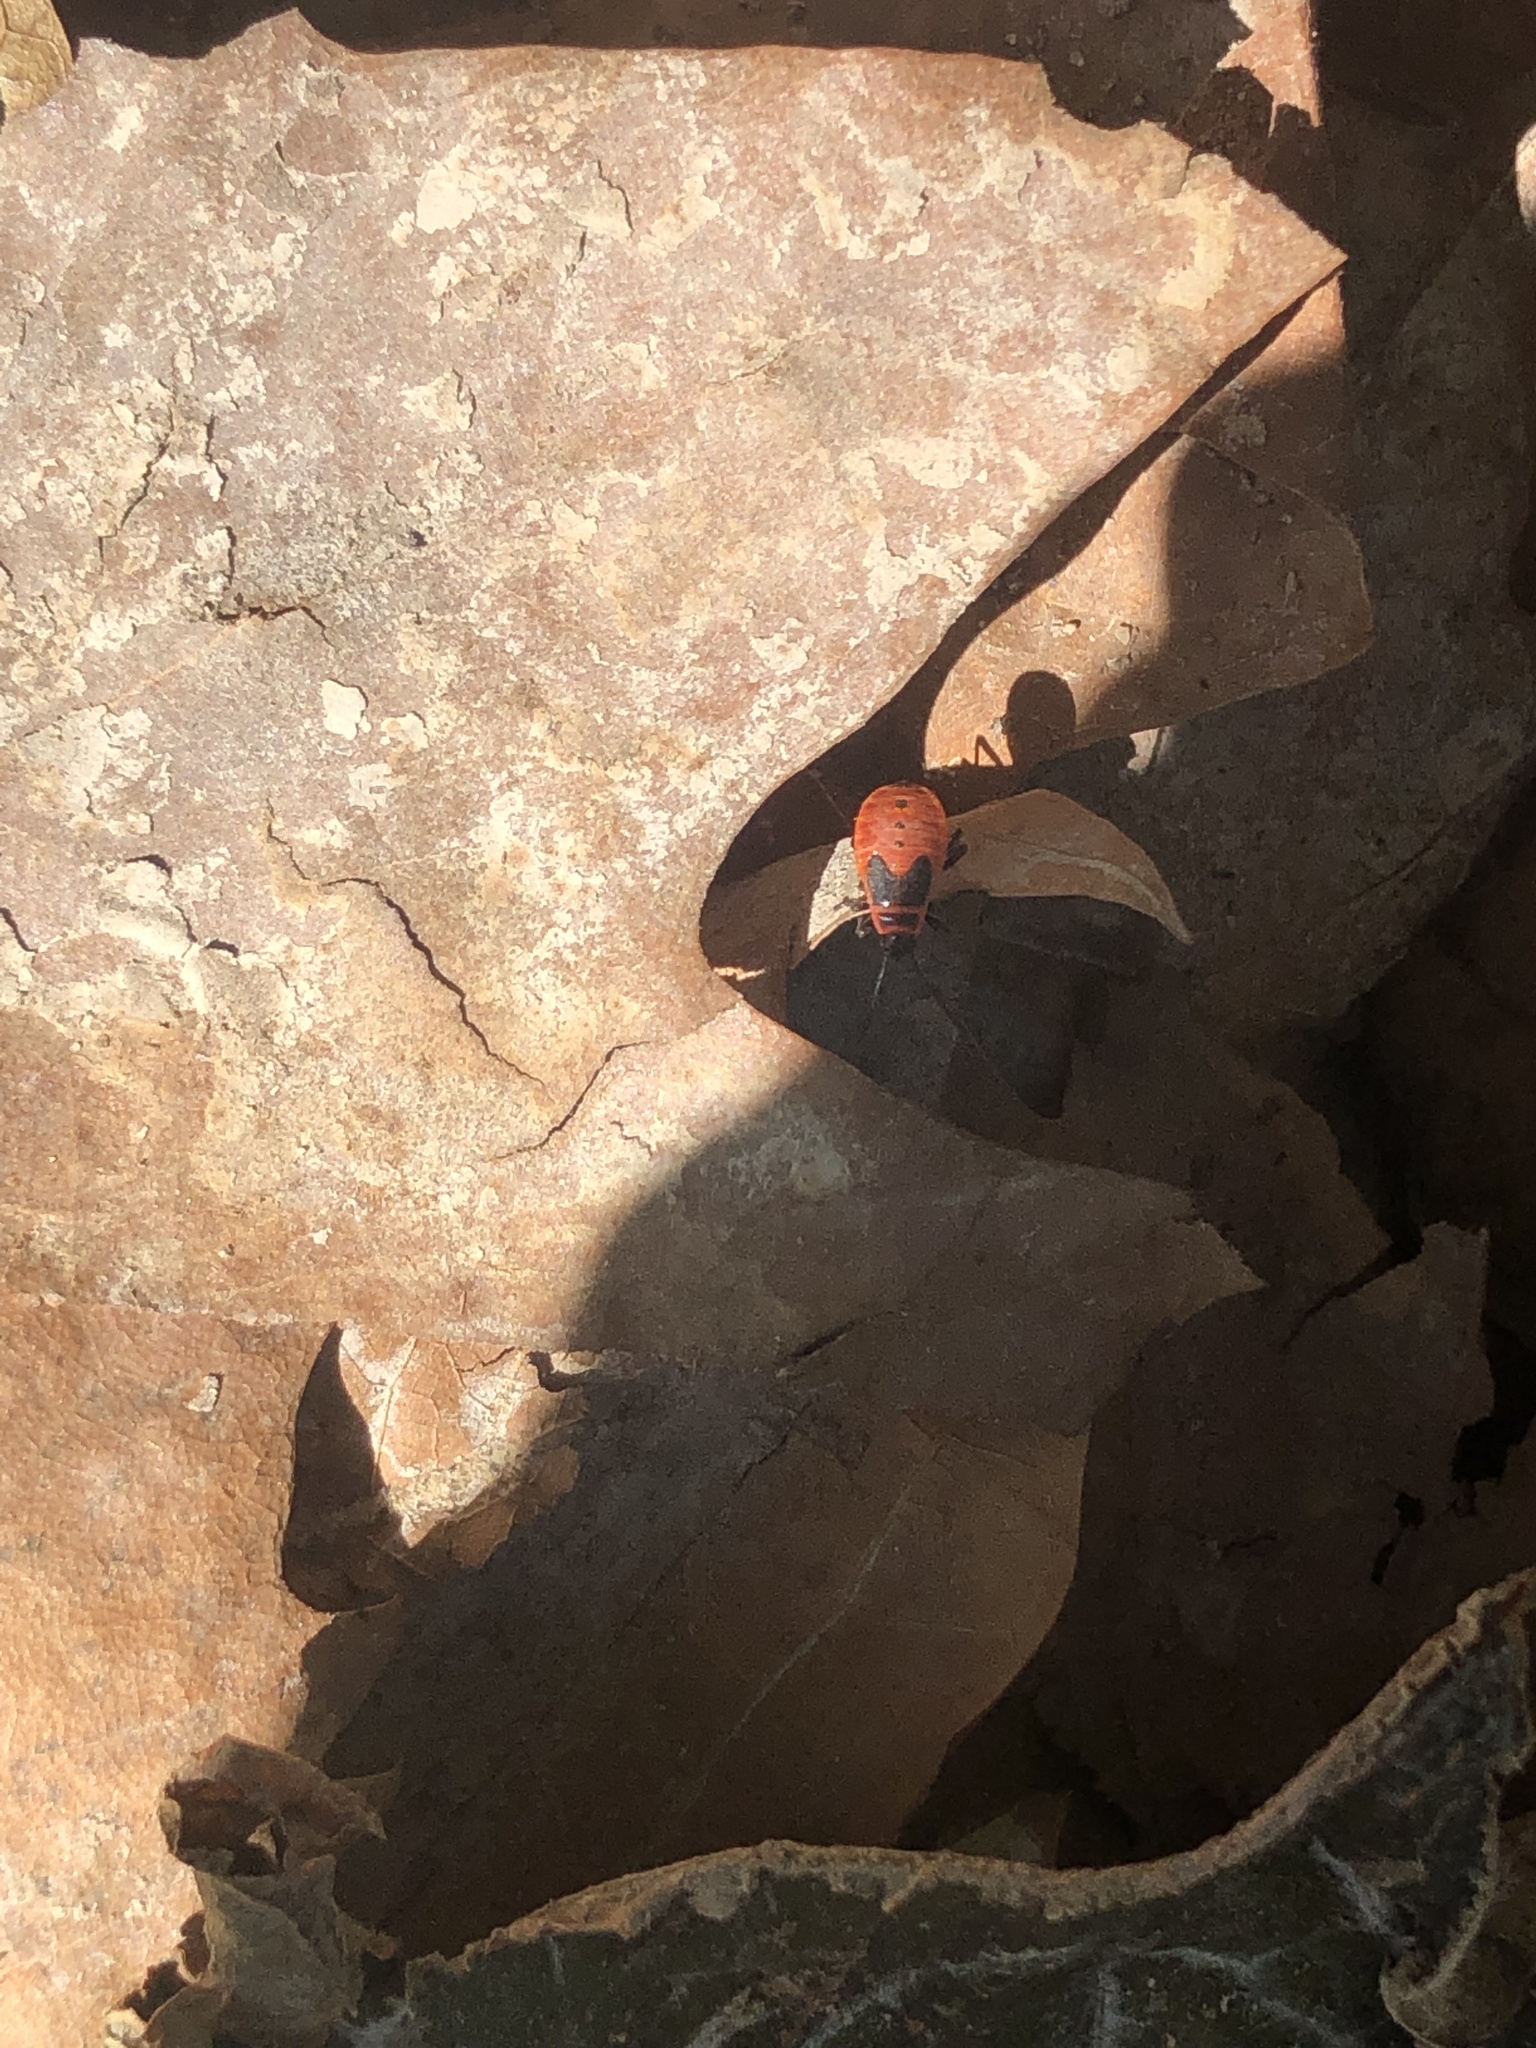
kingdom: Animalia
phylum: Arthropoda
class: Insecta
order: Hemiptera
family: Pyrrhocoridae
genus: Pyrrhocoris
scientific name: Pyrrhocoris apterus
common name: Firebug
